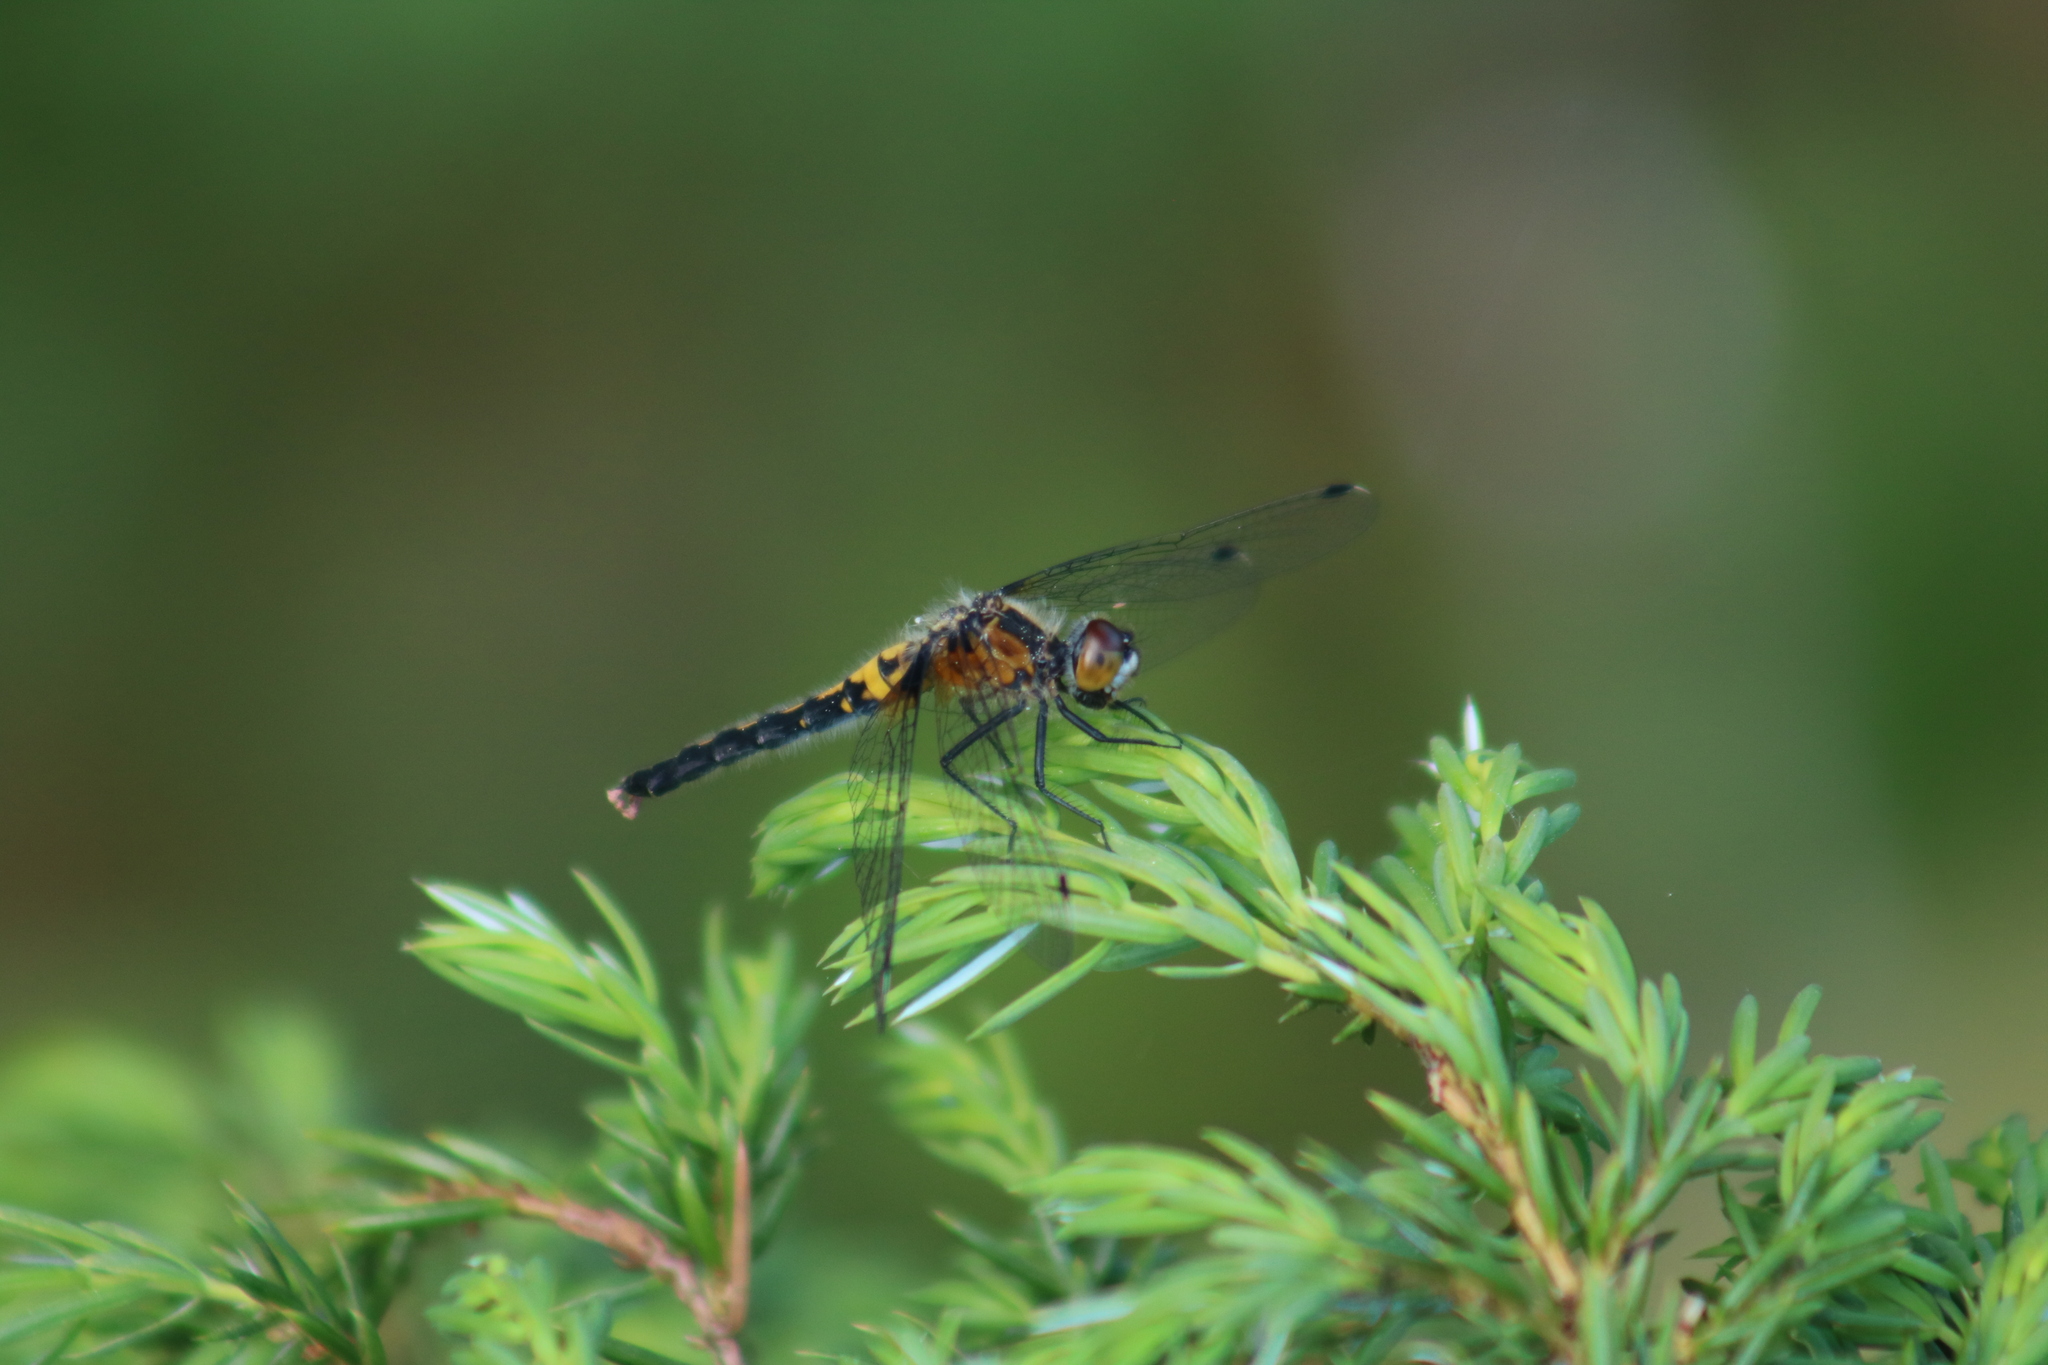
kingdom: Animalia
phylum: Arthropoda
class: Insecta
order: Odonata
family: Libellulidae
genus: Leucorrhinia
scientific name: Leucorrhinia frigida
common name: Frosted whiteface
